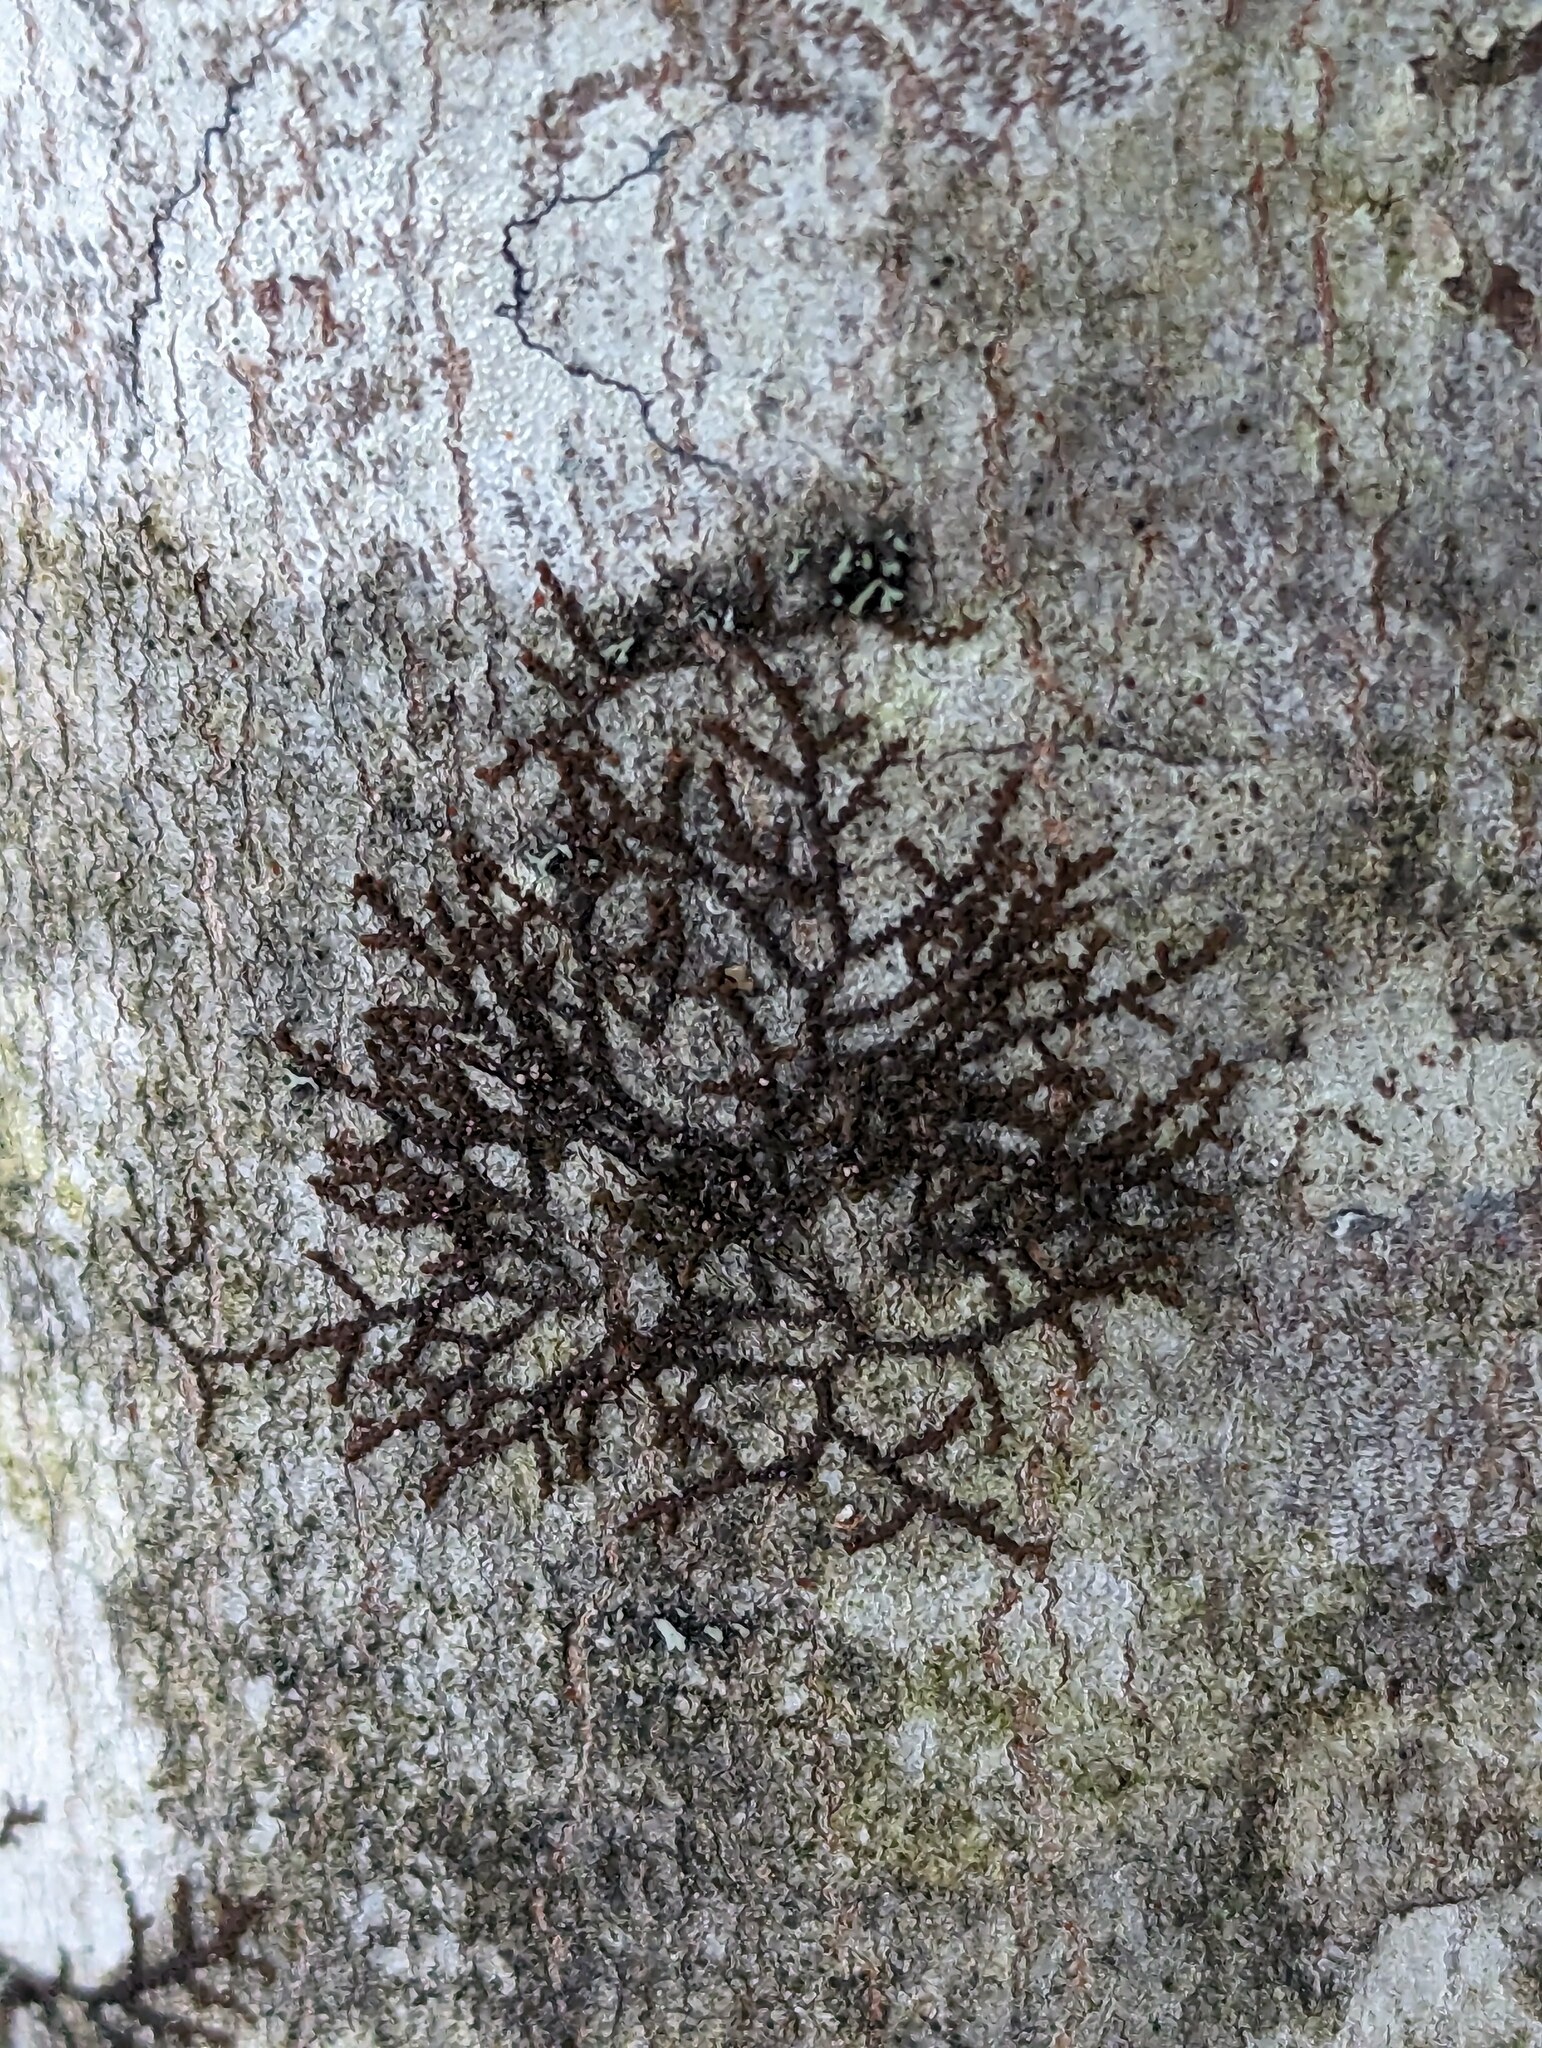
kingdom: Plantae
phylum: Marchantiophyta
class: Jungermanniopsida
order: Porellales
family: Frullaniaceae
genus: Frullania
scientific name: Frullania eboracensis
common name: New york scalewort
